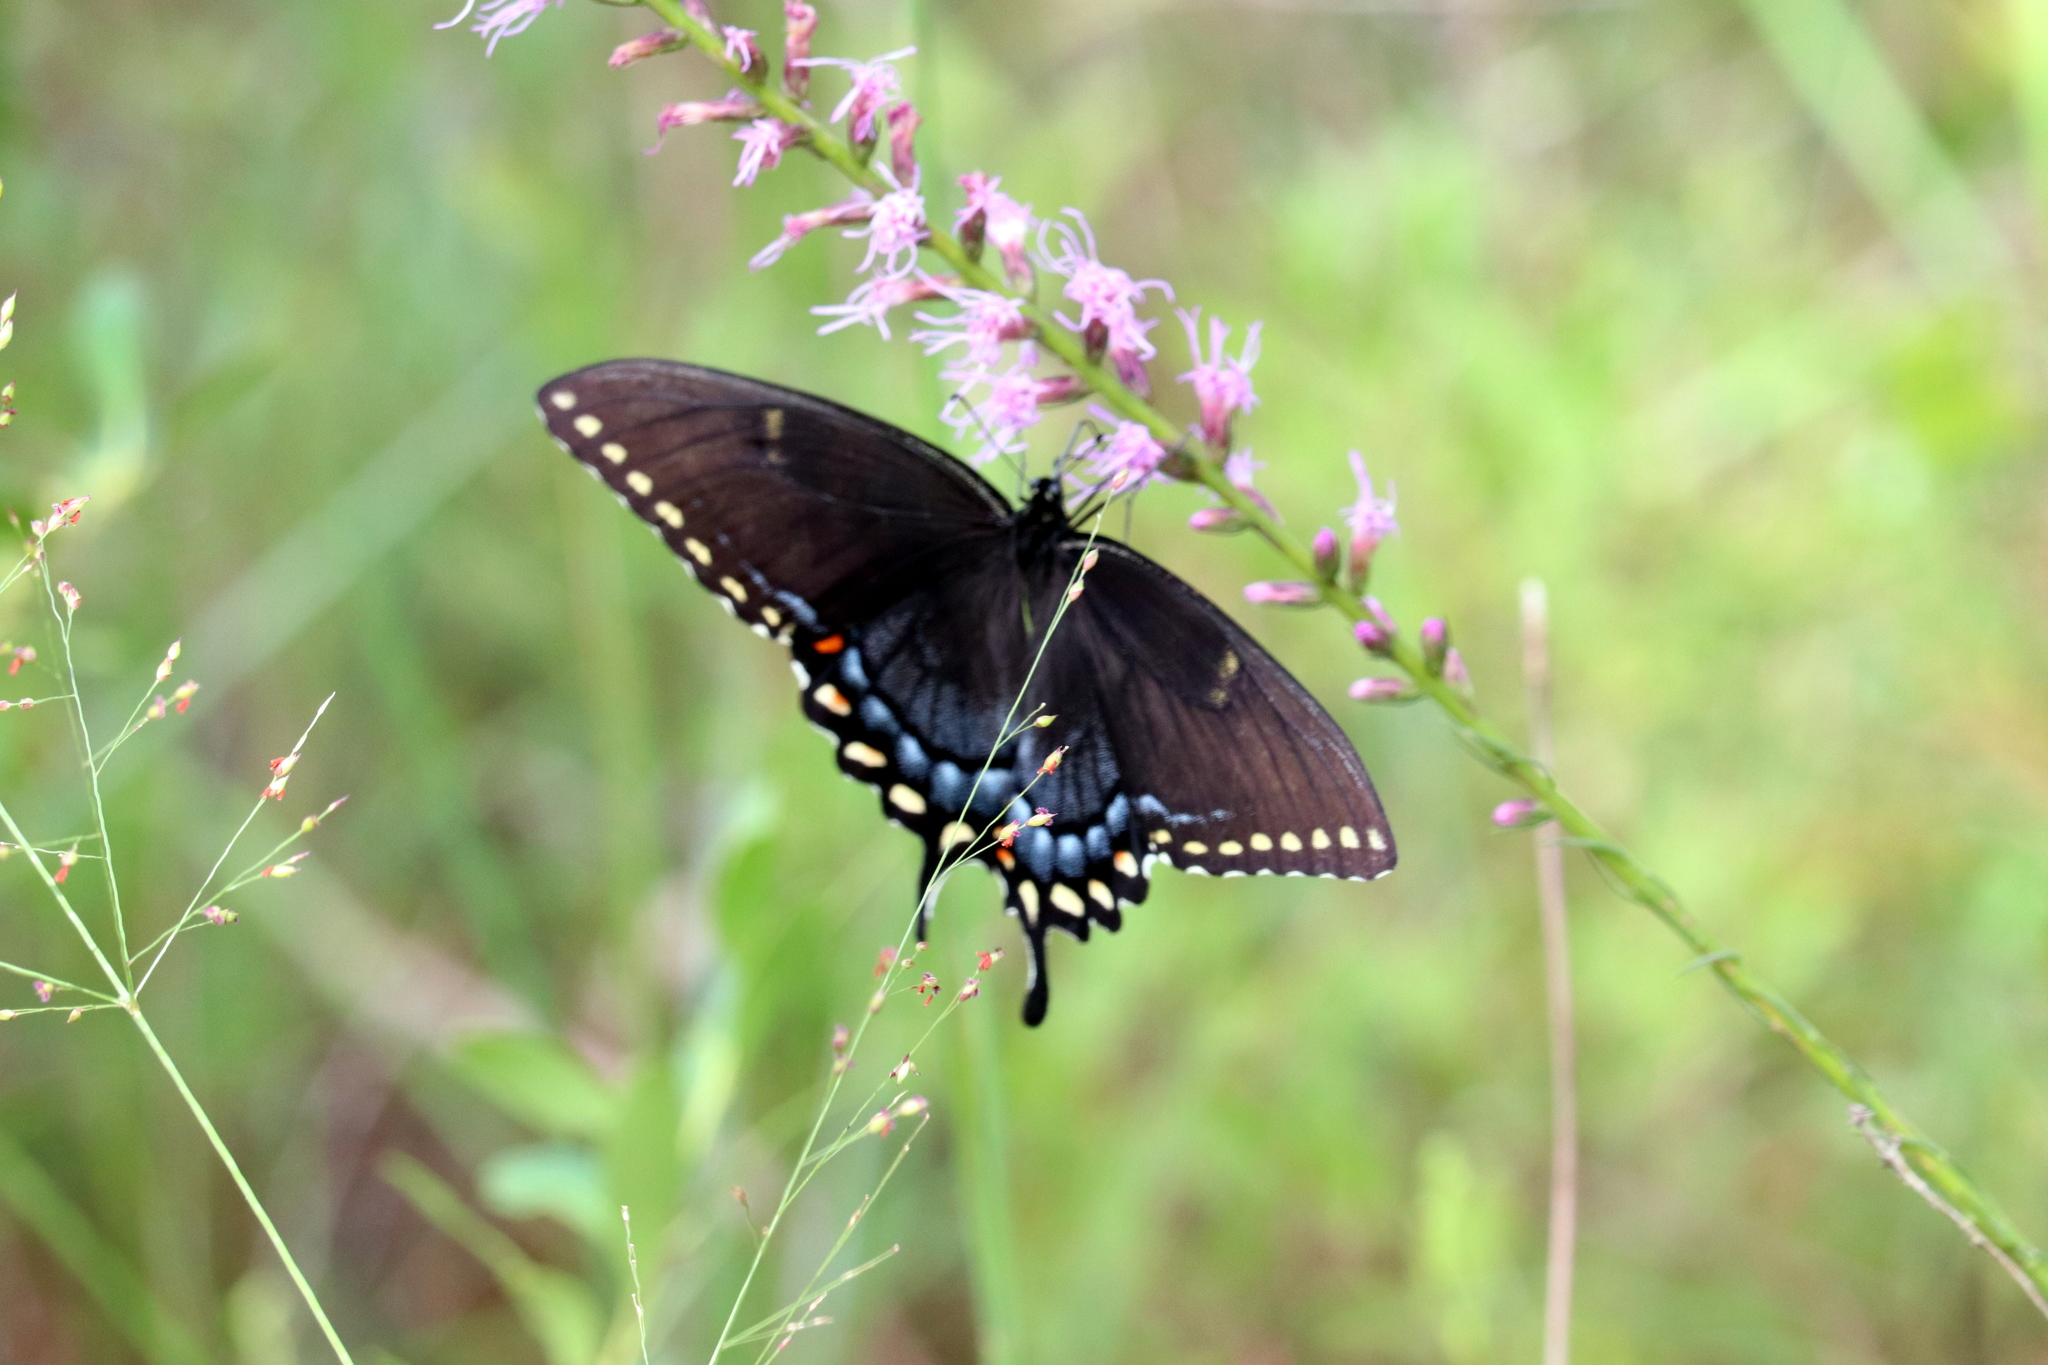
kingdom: Animalia
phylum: Arthropoda
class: Insecta
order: Lepidoptera
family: Papilionidae
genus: Papilio
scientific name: Papilio glaucus
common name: Tiger swallowtail
